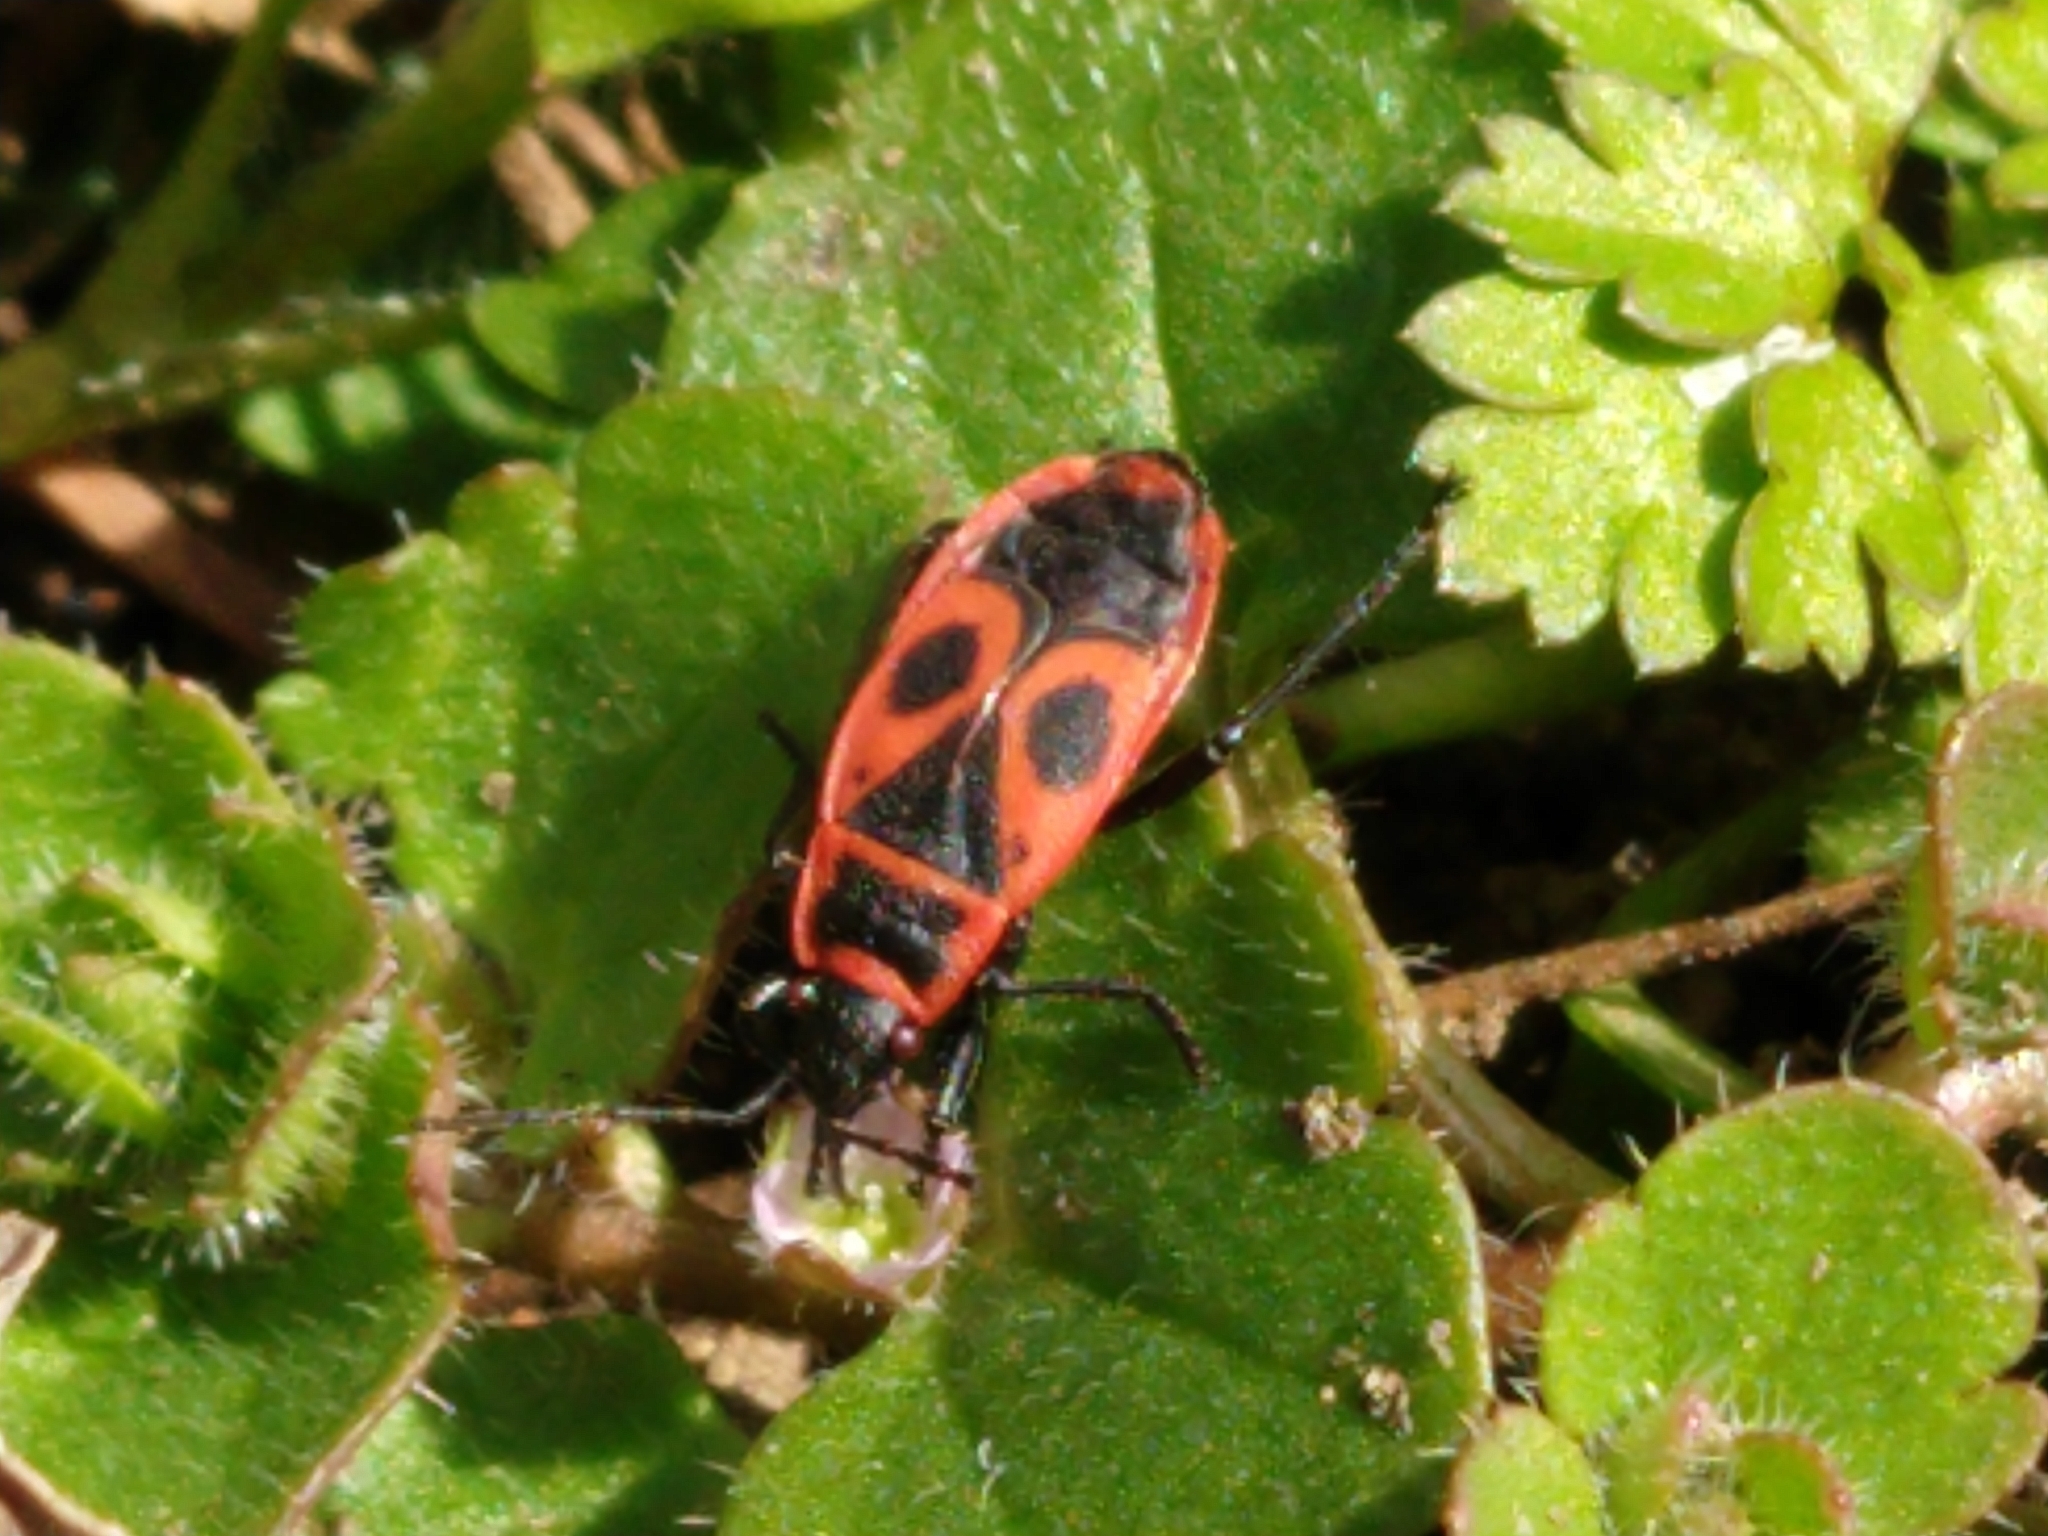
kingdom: Animalia
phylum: Arthropoda
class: Insecta
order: Hemiptera
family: Pyrrhocoridae
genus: Pyrrhocoris
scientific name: Pyrrhocoris apterus
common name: Firebug
